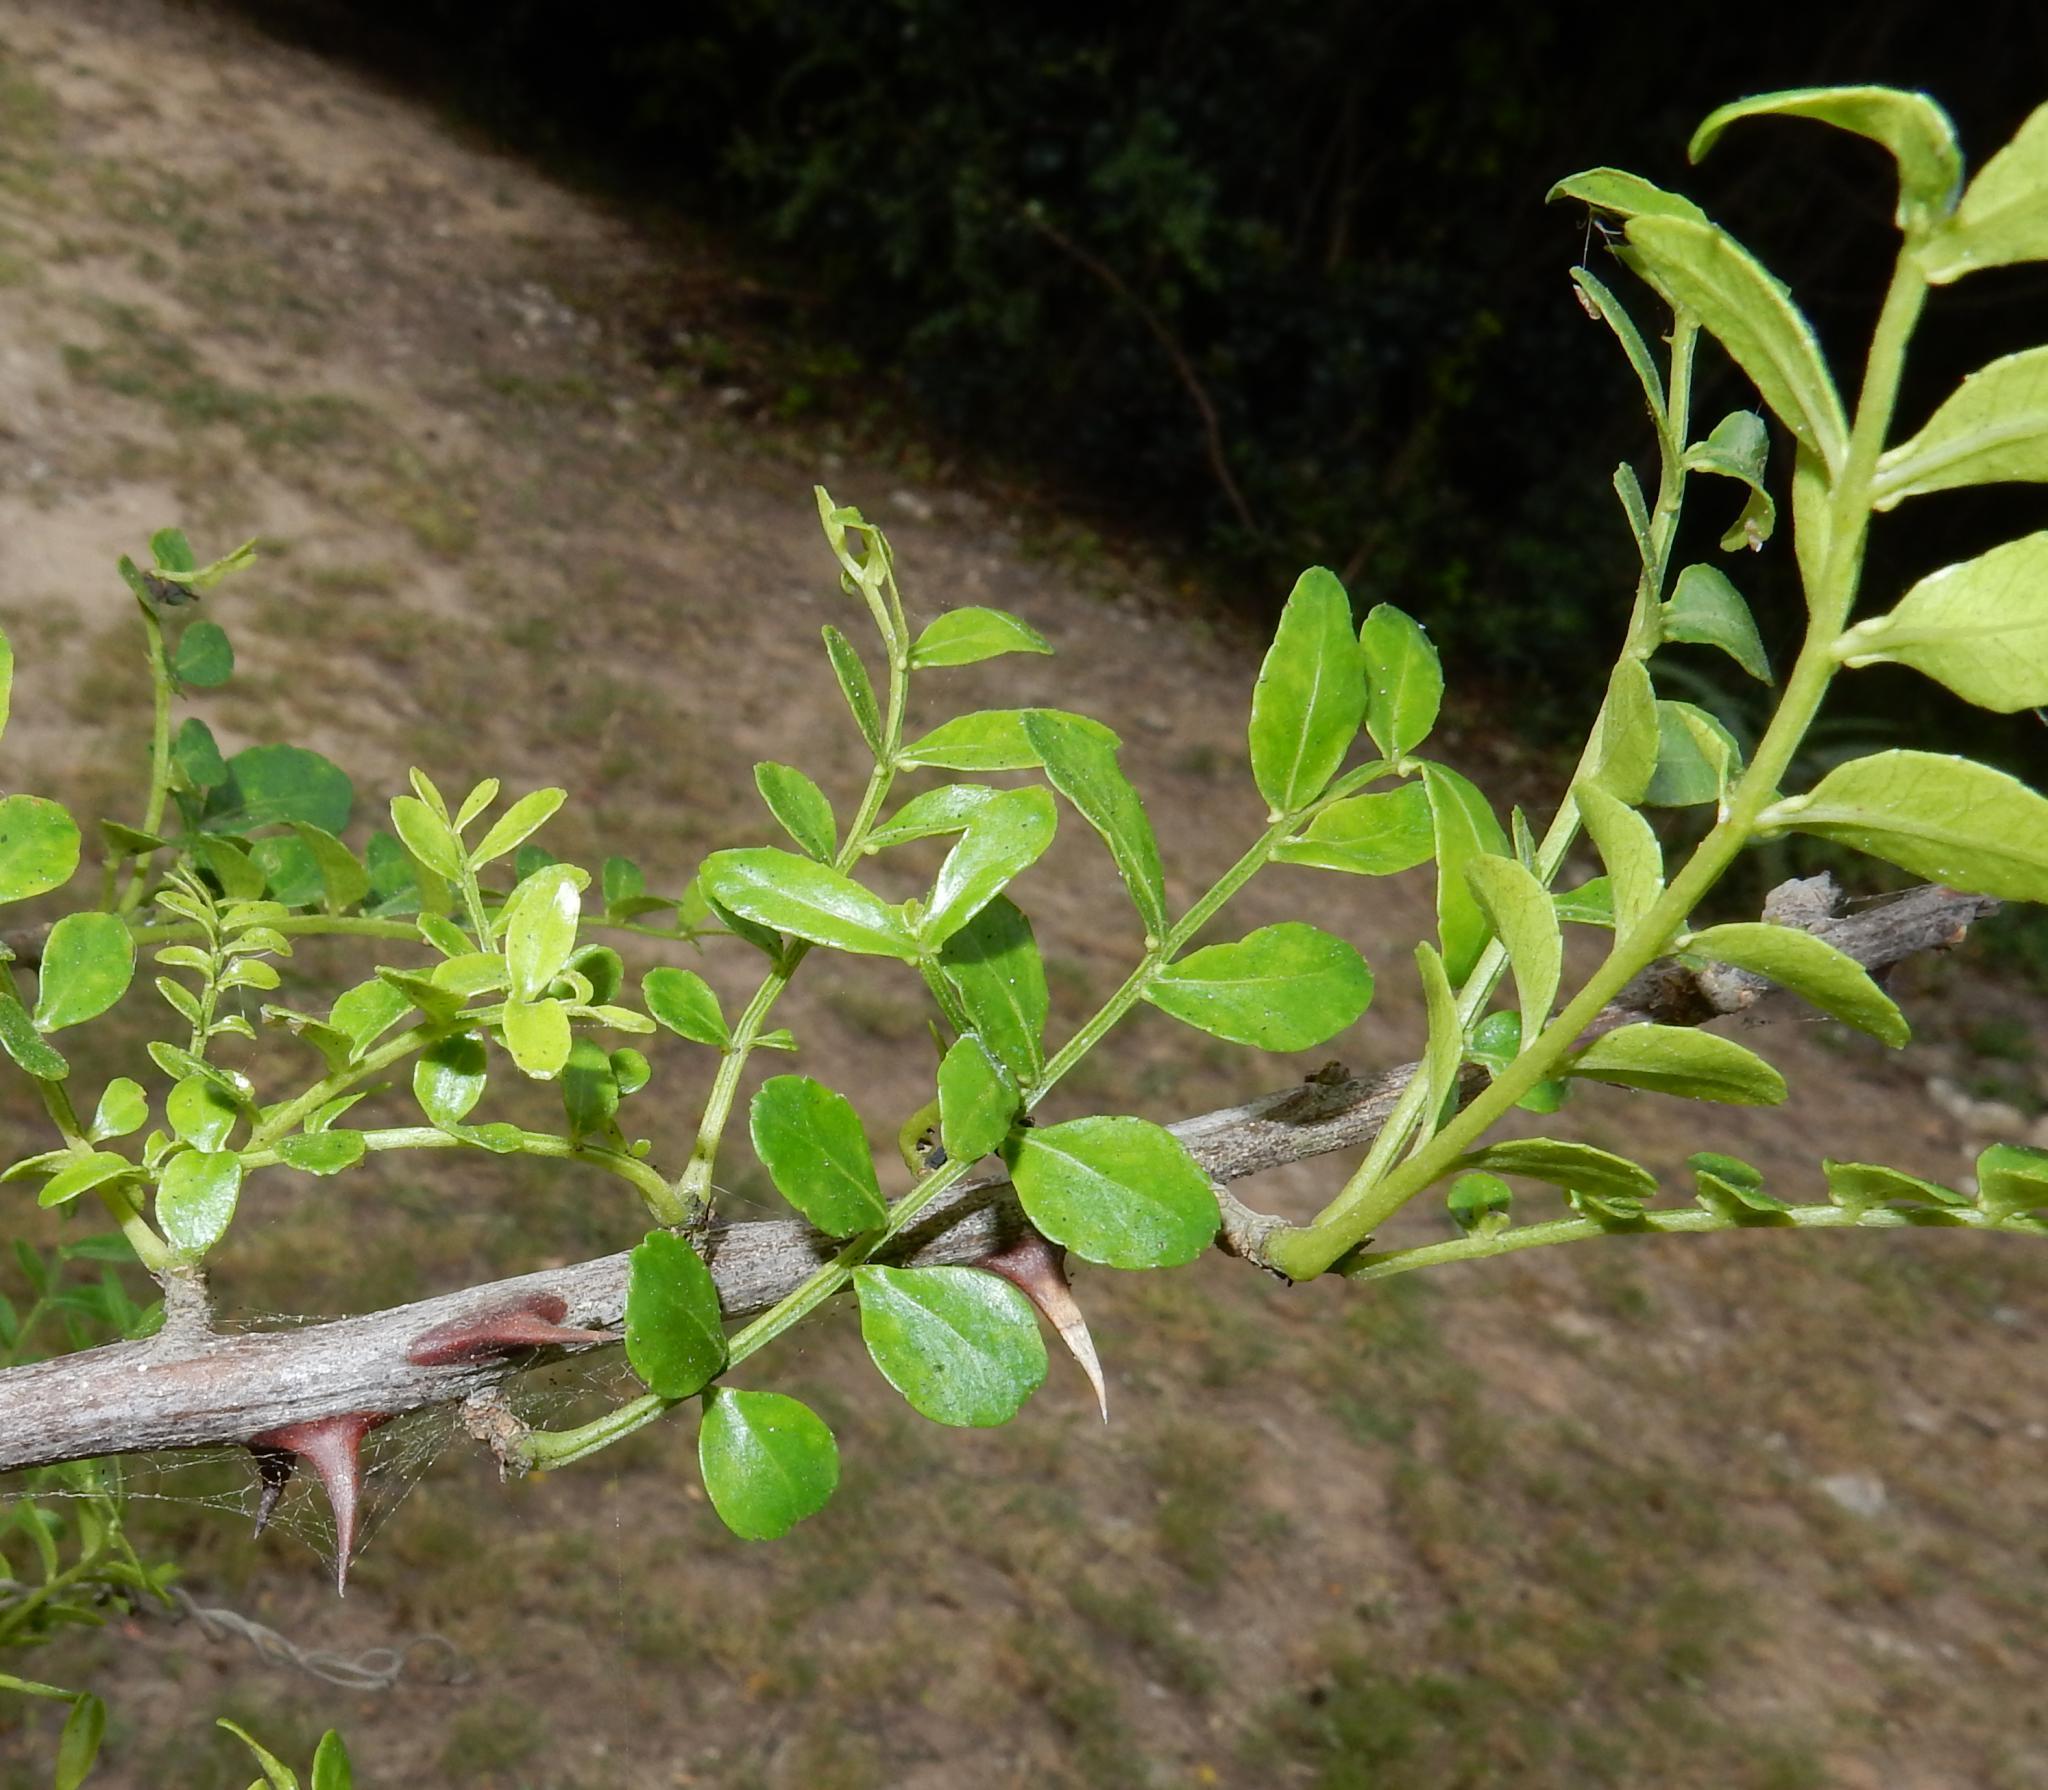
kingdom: Plantae
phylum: Tracheophyta
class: Magnoliopsida
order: Sapindales
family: Rutaceae
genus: Zanthoxylum
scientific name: Zanthoxylum capense
